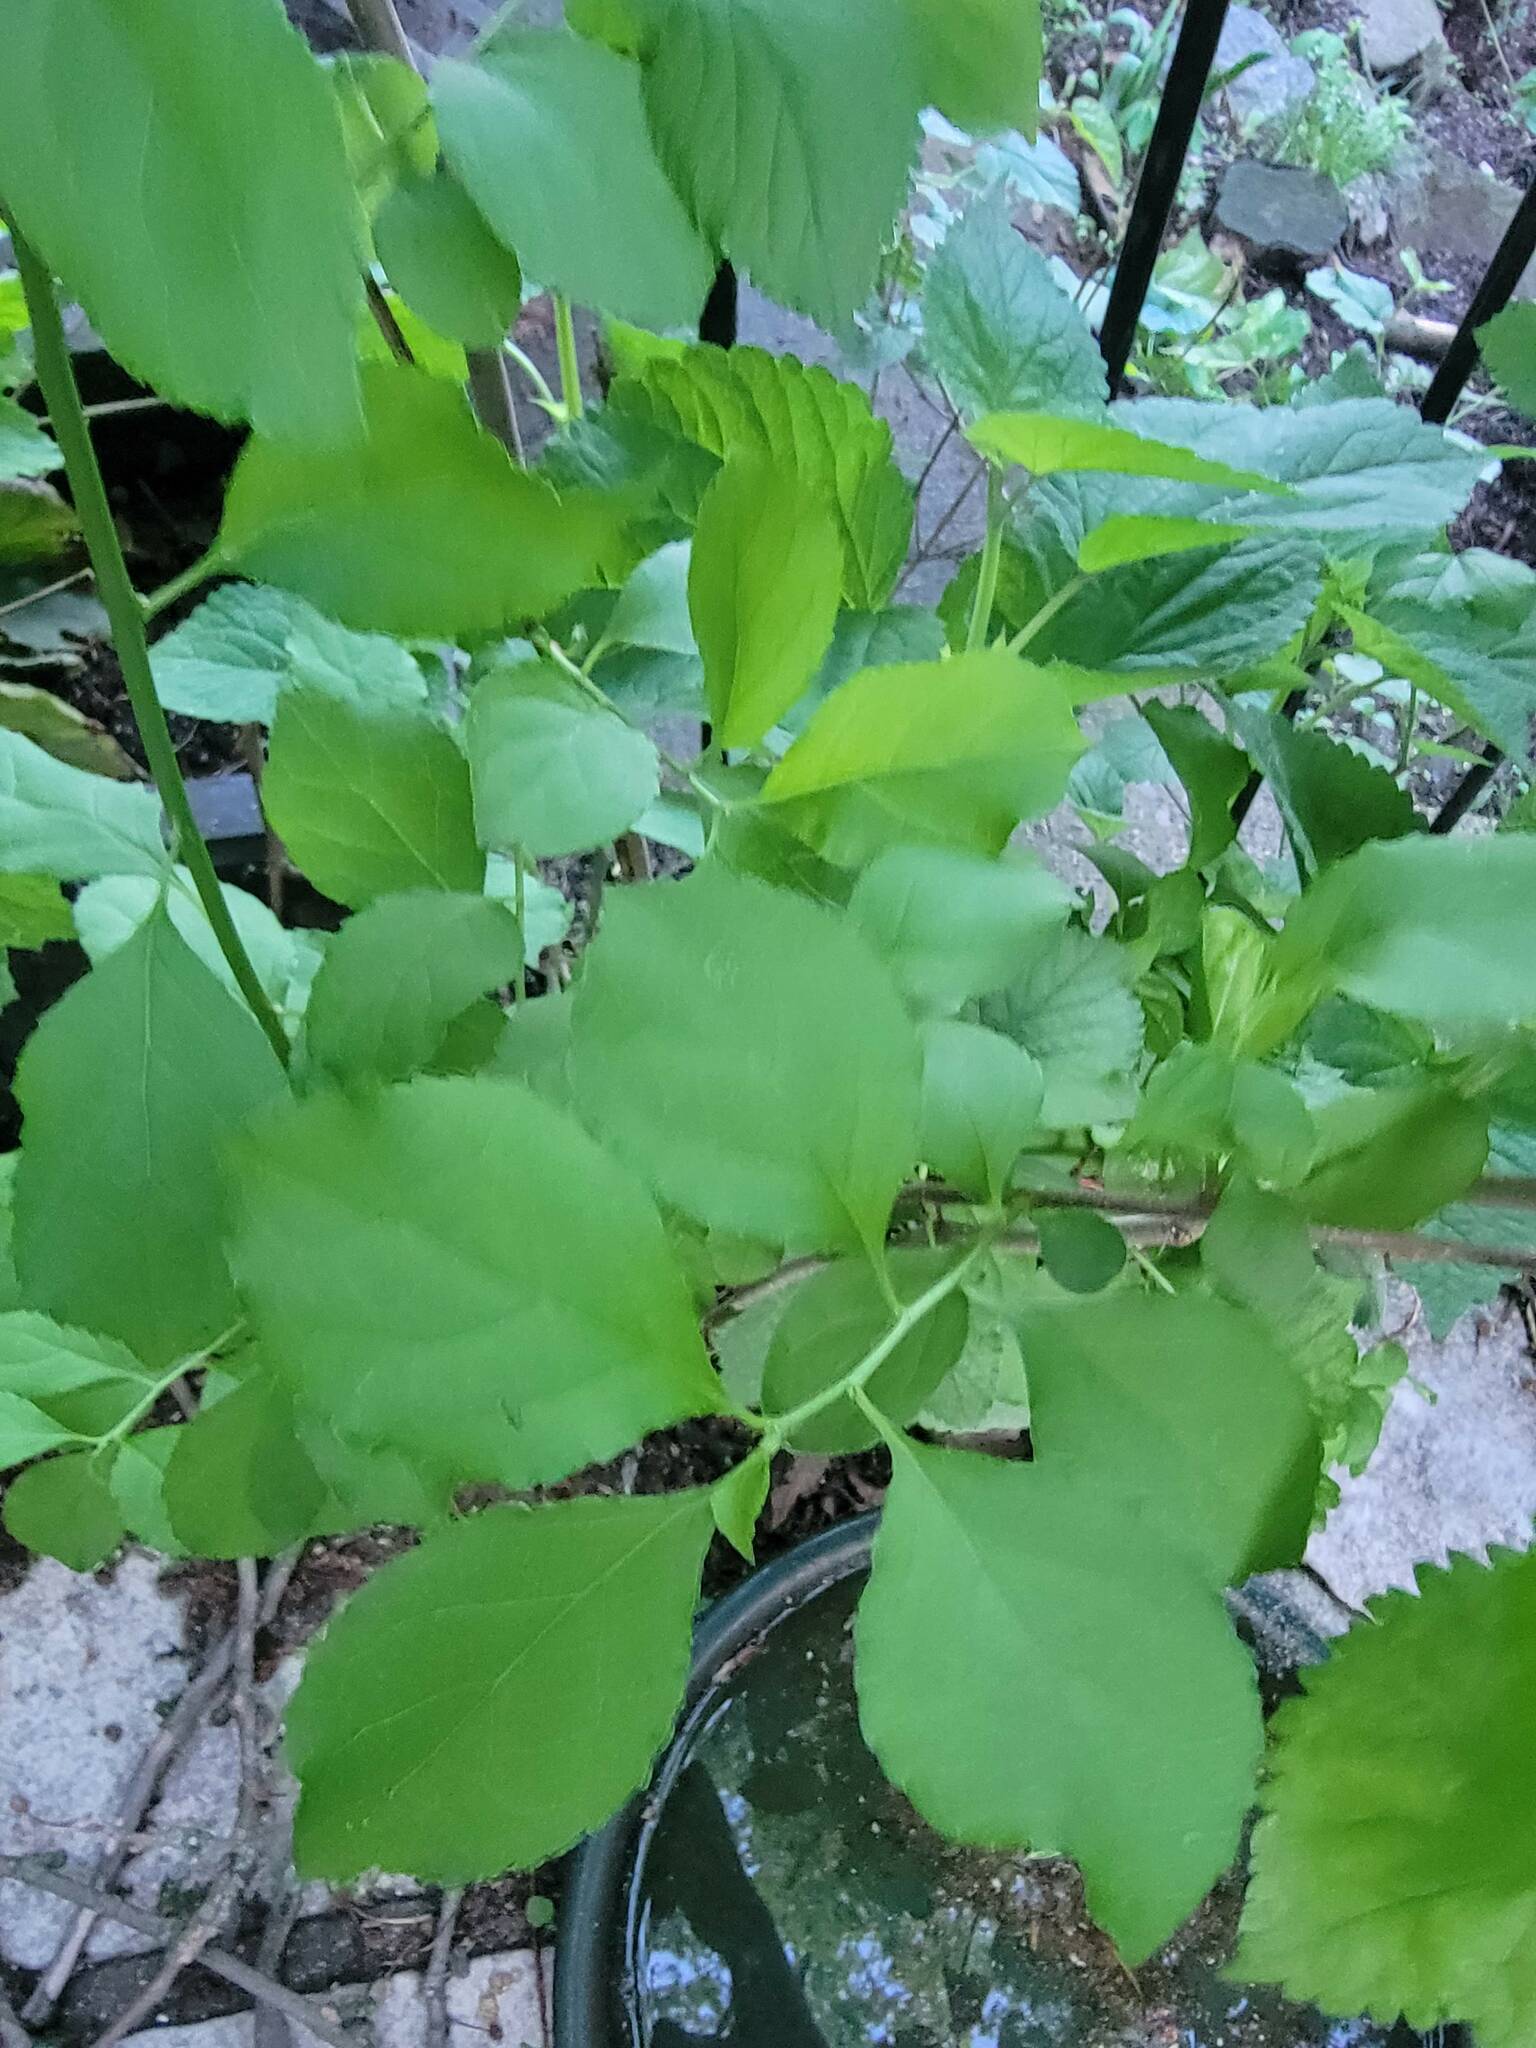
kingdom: Plantae
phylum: Tracheophyta
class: Magnoliopsida
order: Celastrales
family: Celastraceae
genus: Celastrus
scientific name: Celastrus orbiculatus
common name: Oriental bittersweet
